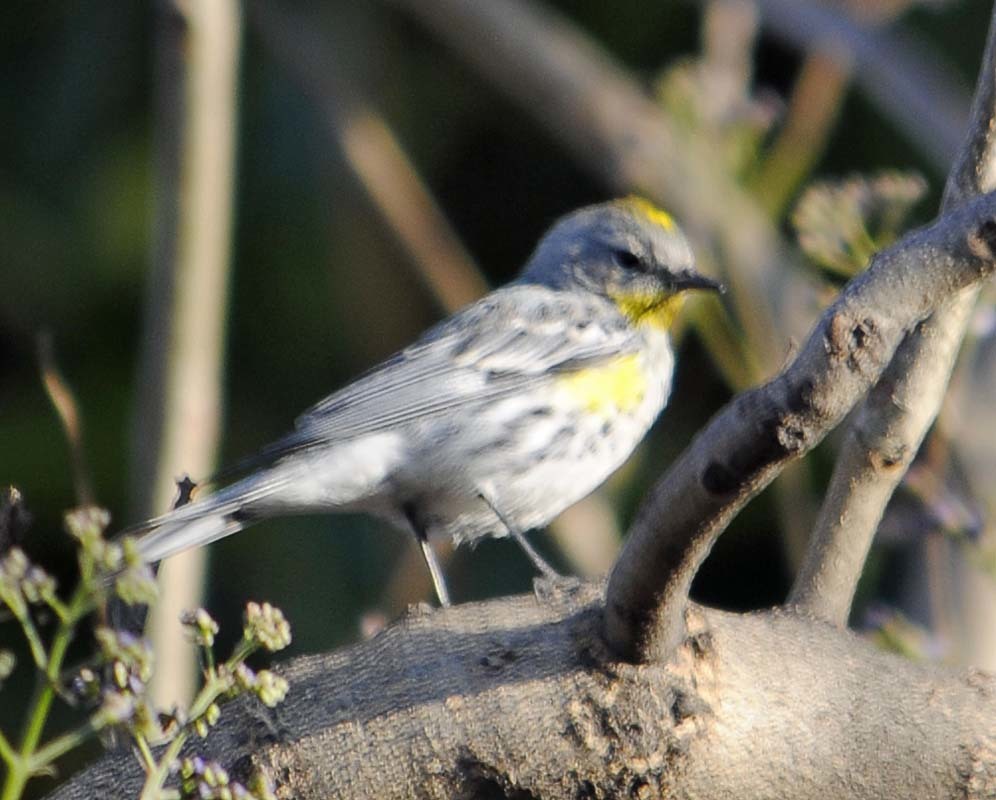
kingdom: Animalia
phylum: Chordata
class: Aves
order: Passeriformes
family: Parulidae
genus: Setophaga
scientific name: Setophaga auduboni
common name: Audubon's warbler
